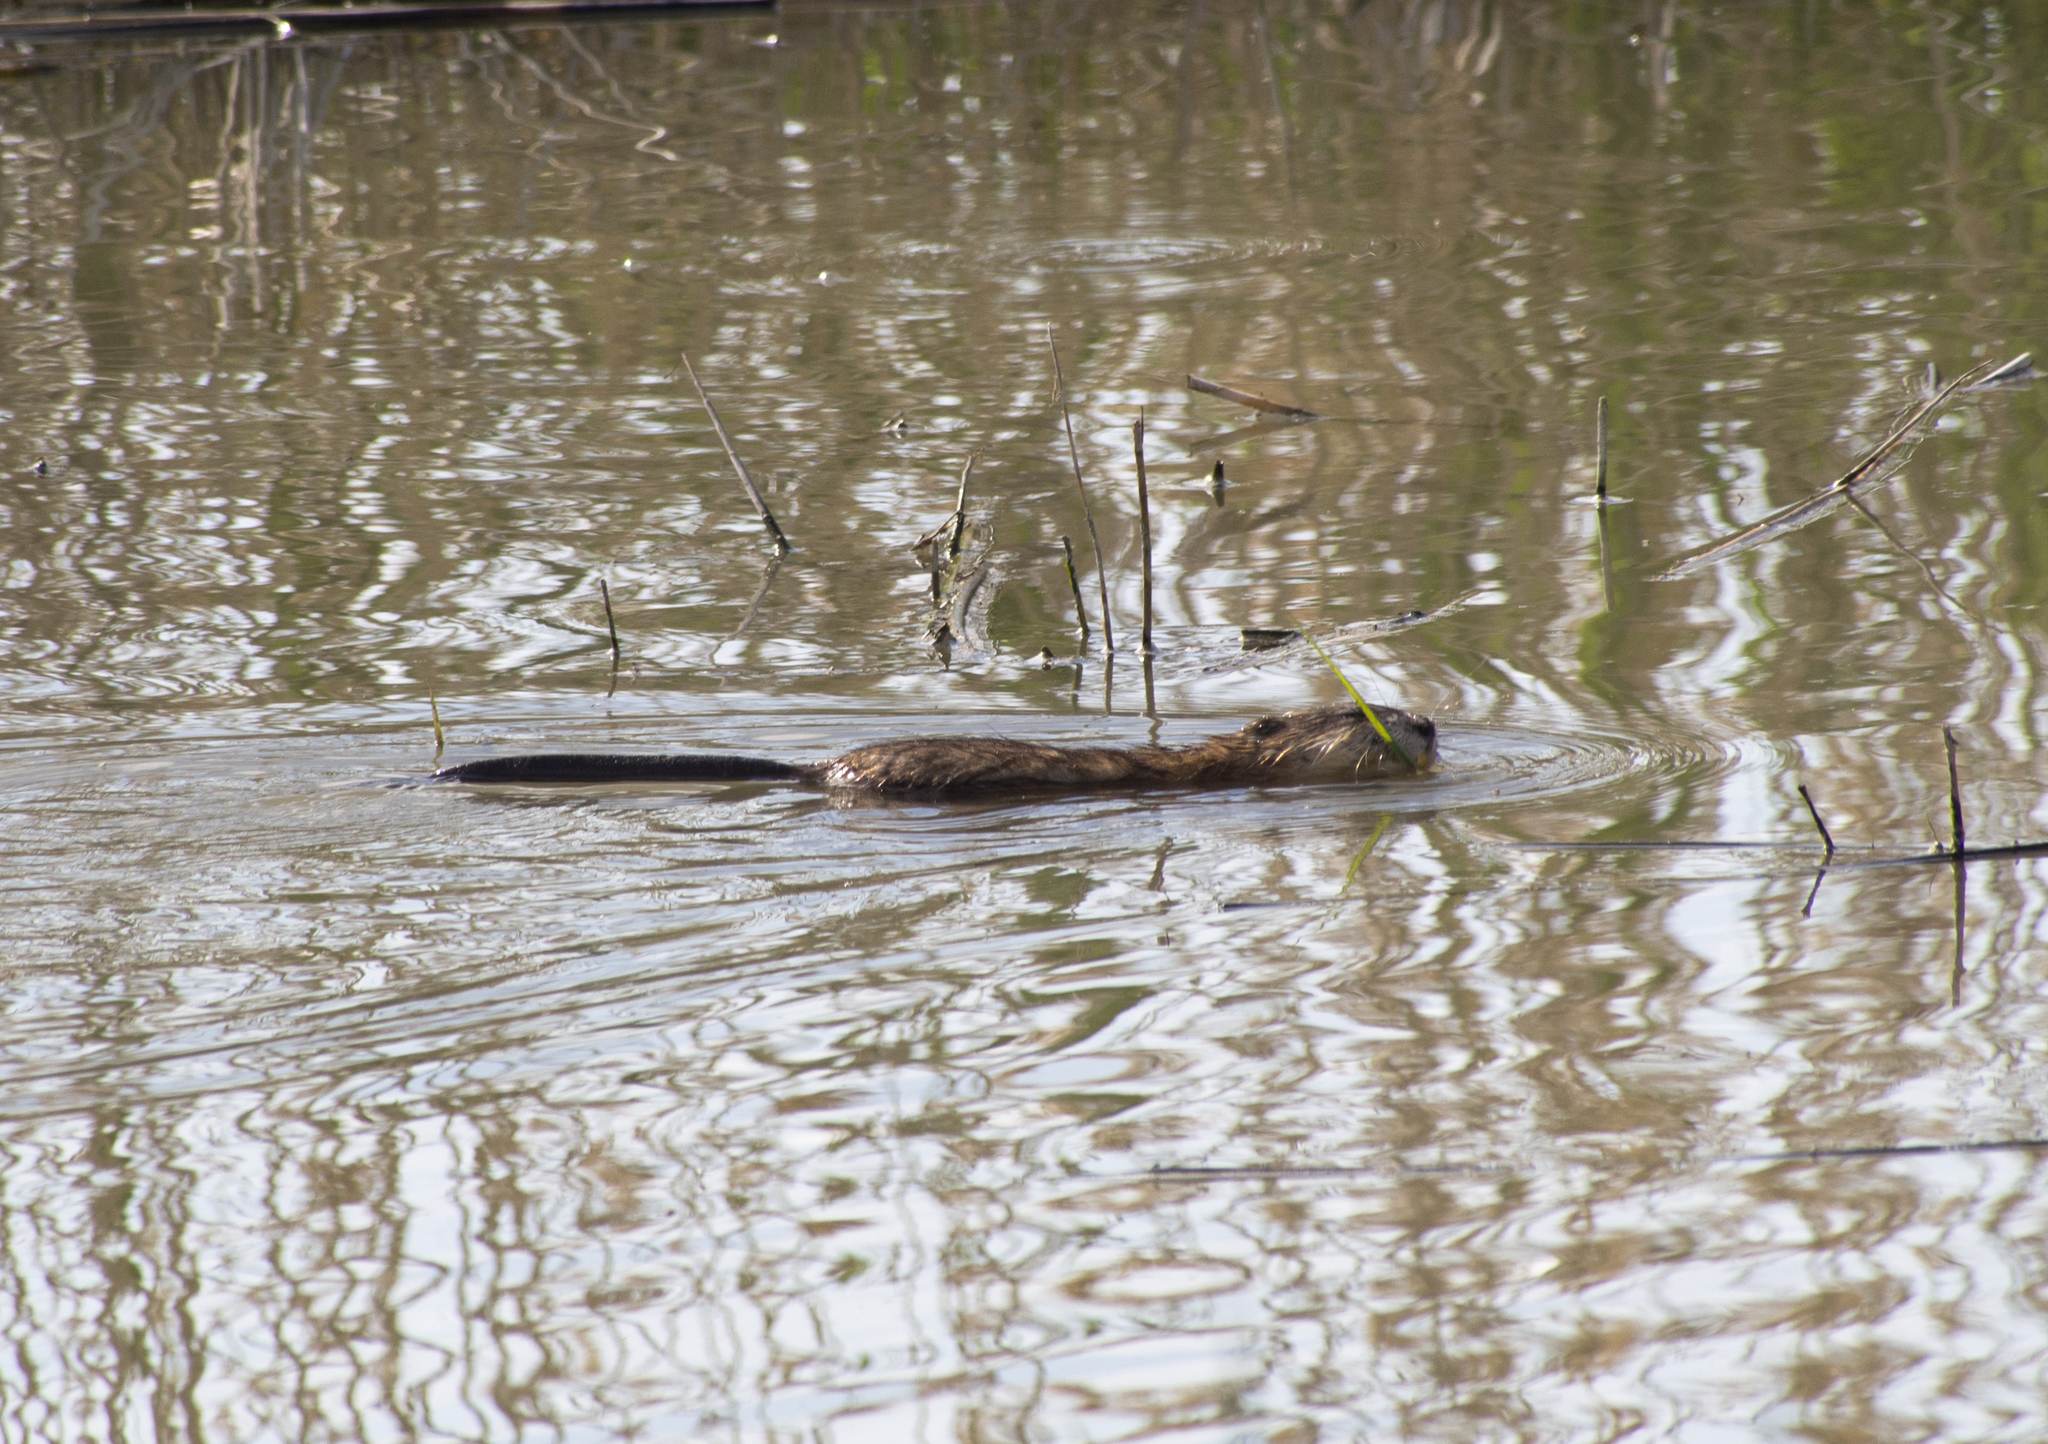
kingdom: Animalia
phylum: Chordata
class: Mammalia
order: Rodentia
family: Cricetidae
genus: Ondatra
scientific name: Ondatra zibethicus
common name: Muskrat
